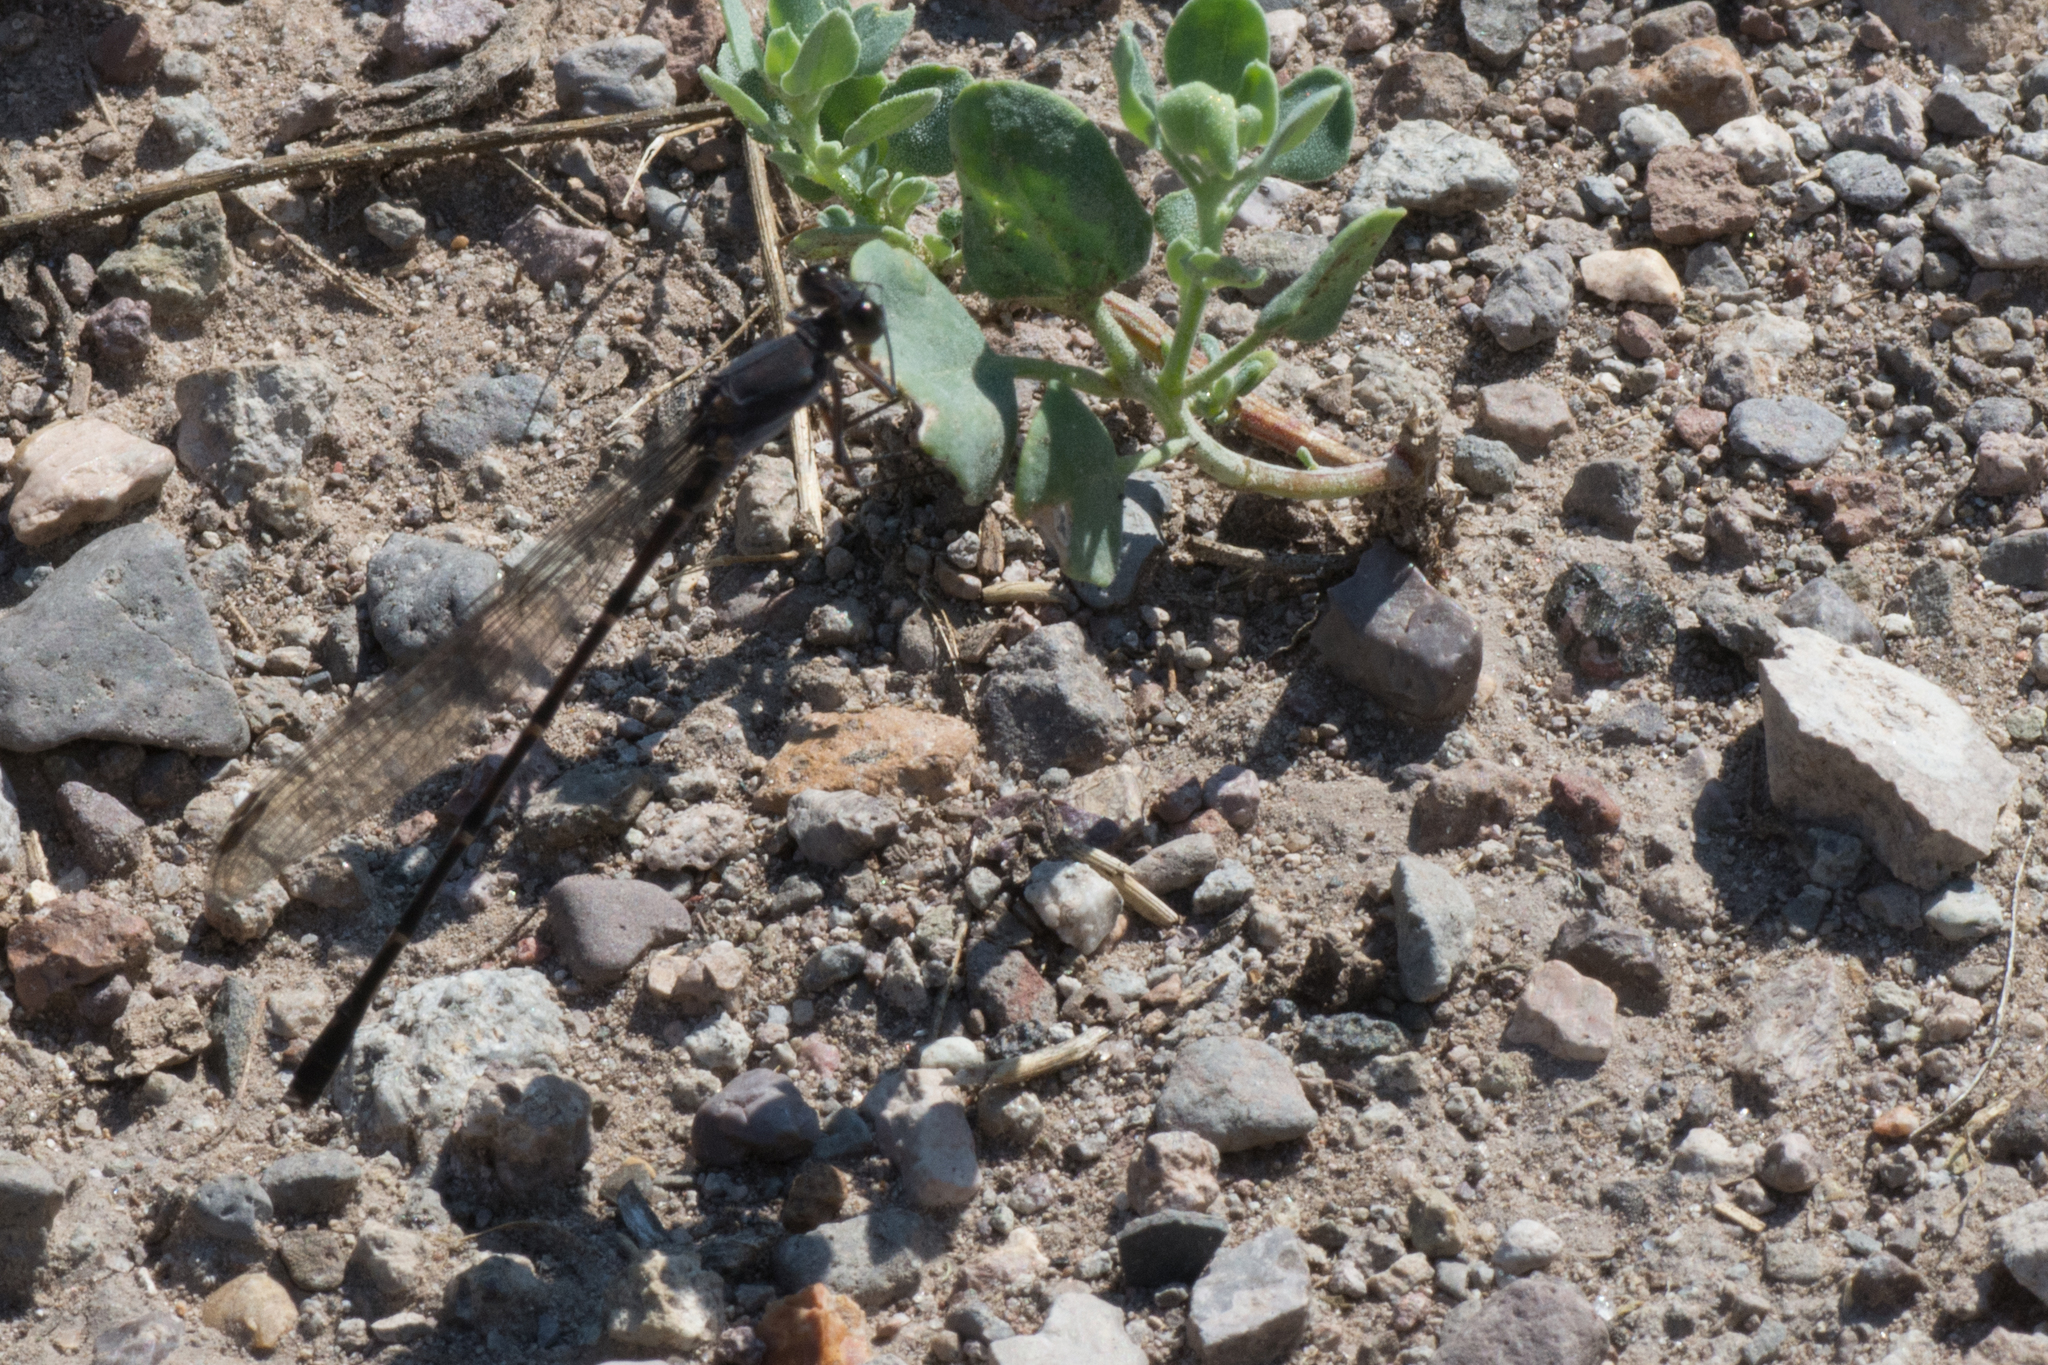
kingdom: Animalia
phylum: Arthropoda
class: Insecta
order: Odonata
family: Coenagrionidae
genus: Argia
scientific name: Argia lugens
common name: Sooty dancer
